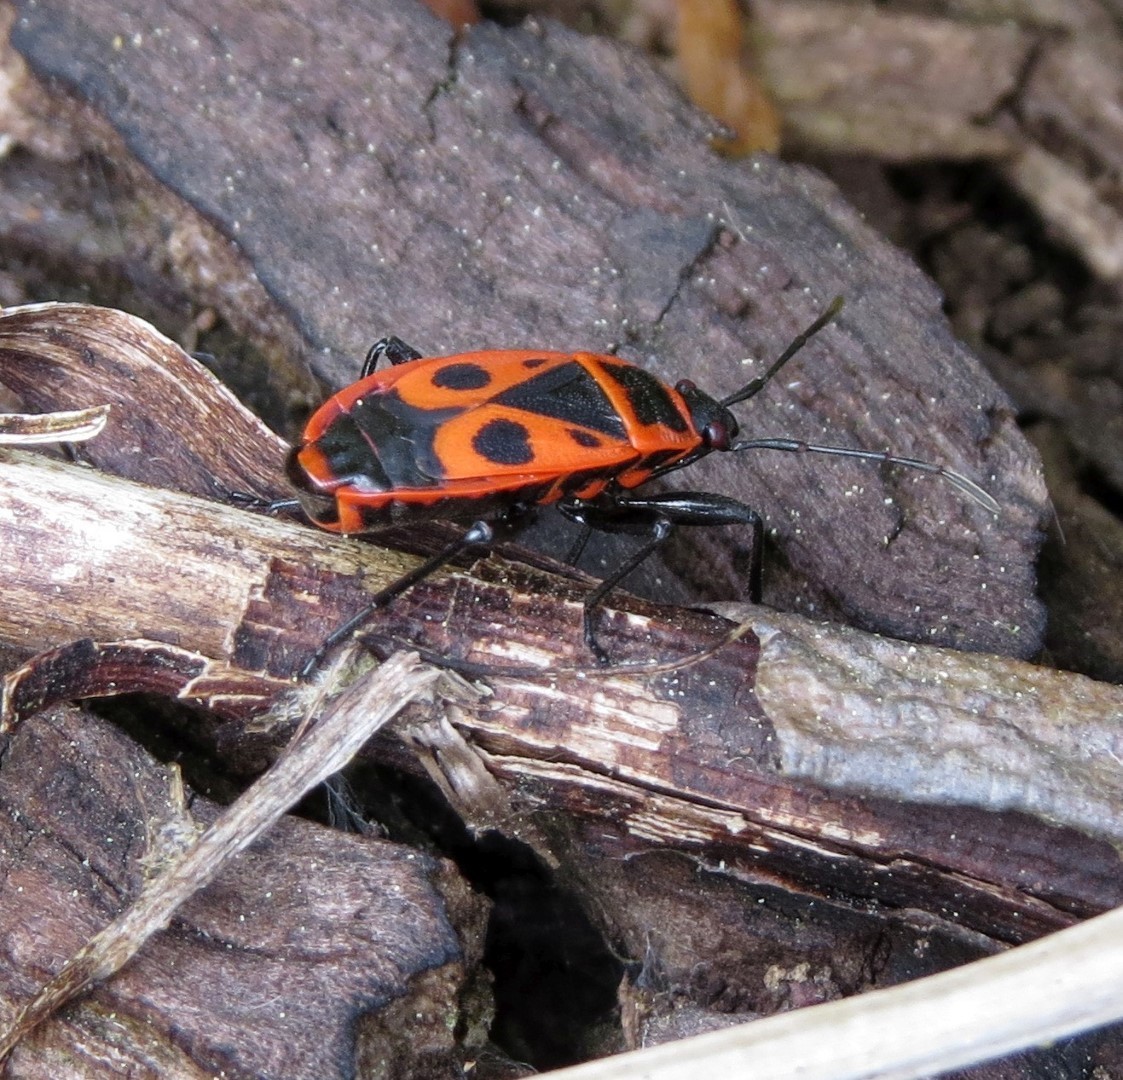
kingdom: Animalia
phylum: Arthropoda
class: Insecta
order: Hemiptera
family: Pyrrhocoridae
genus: Pyrrhocoris
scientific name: Pyrrhocoris apterus
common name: Firebug
